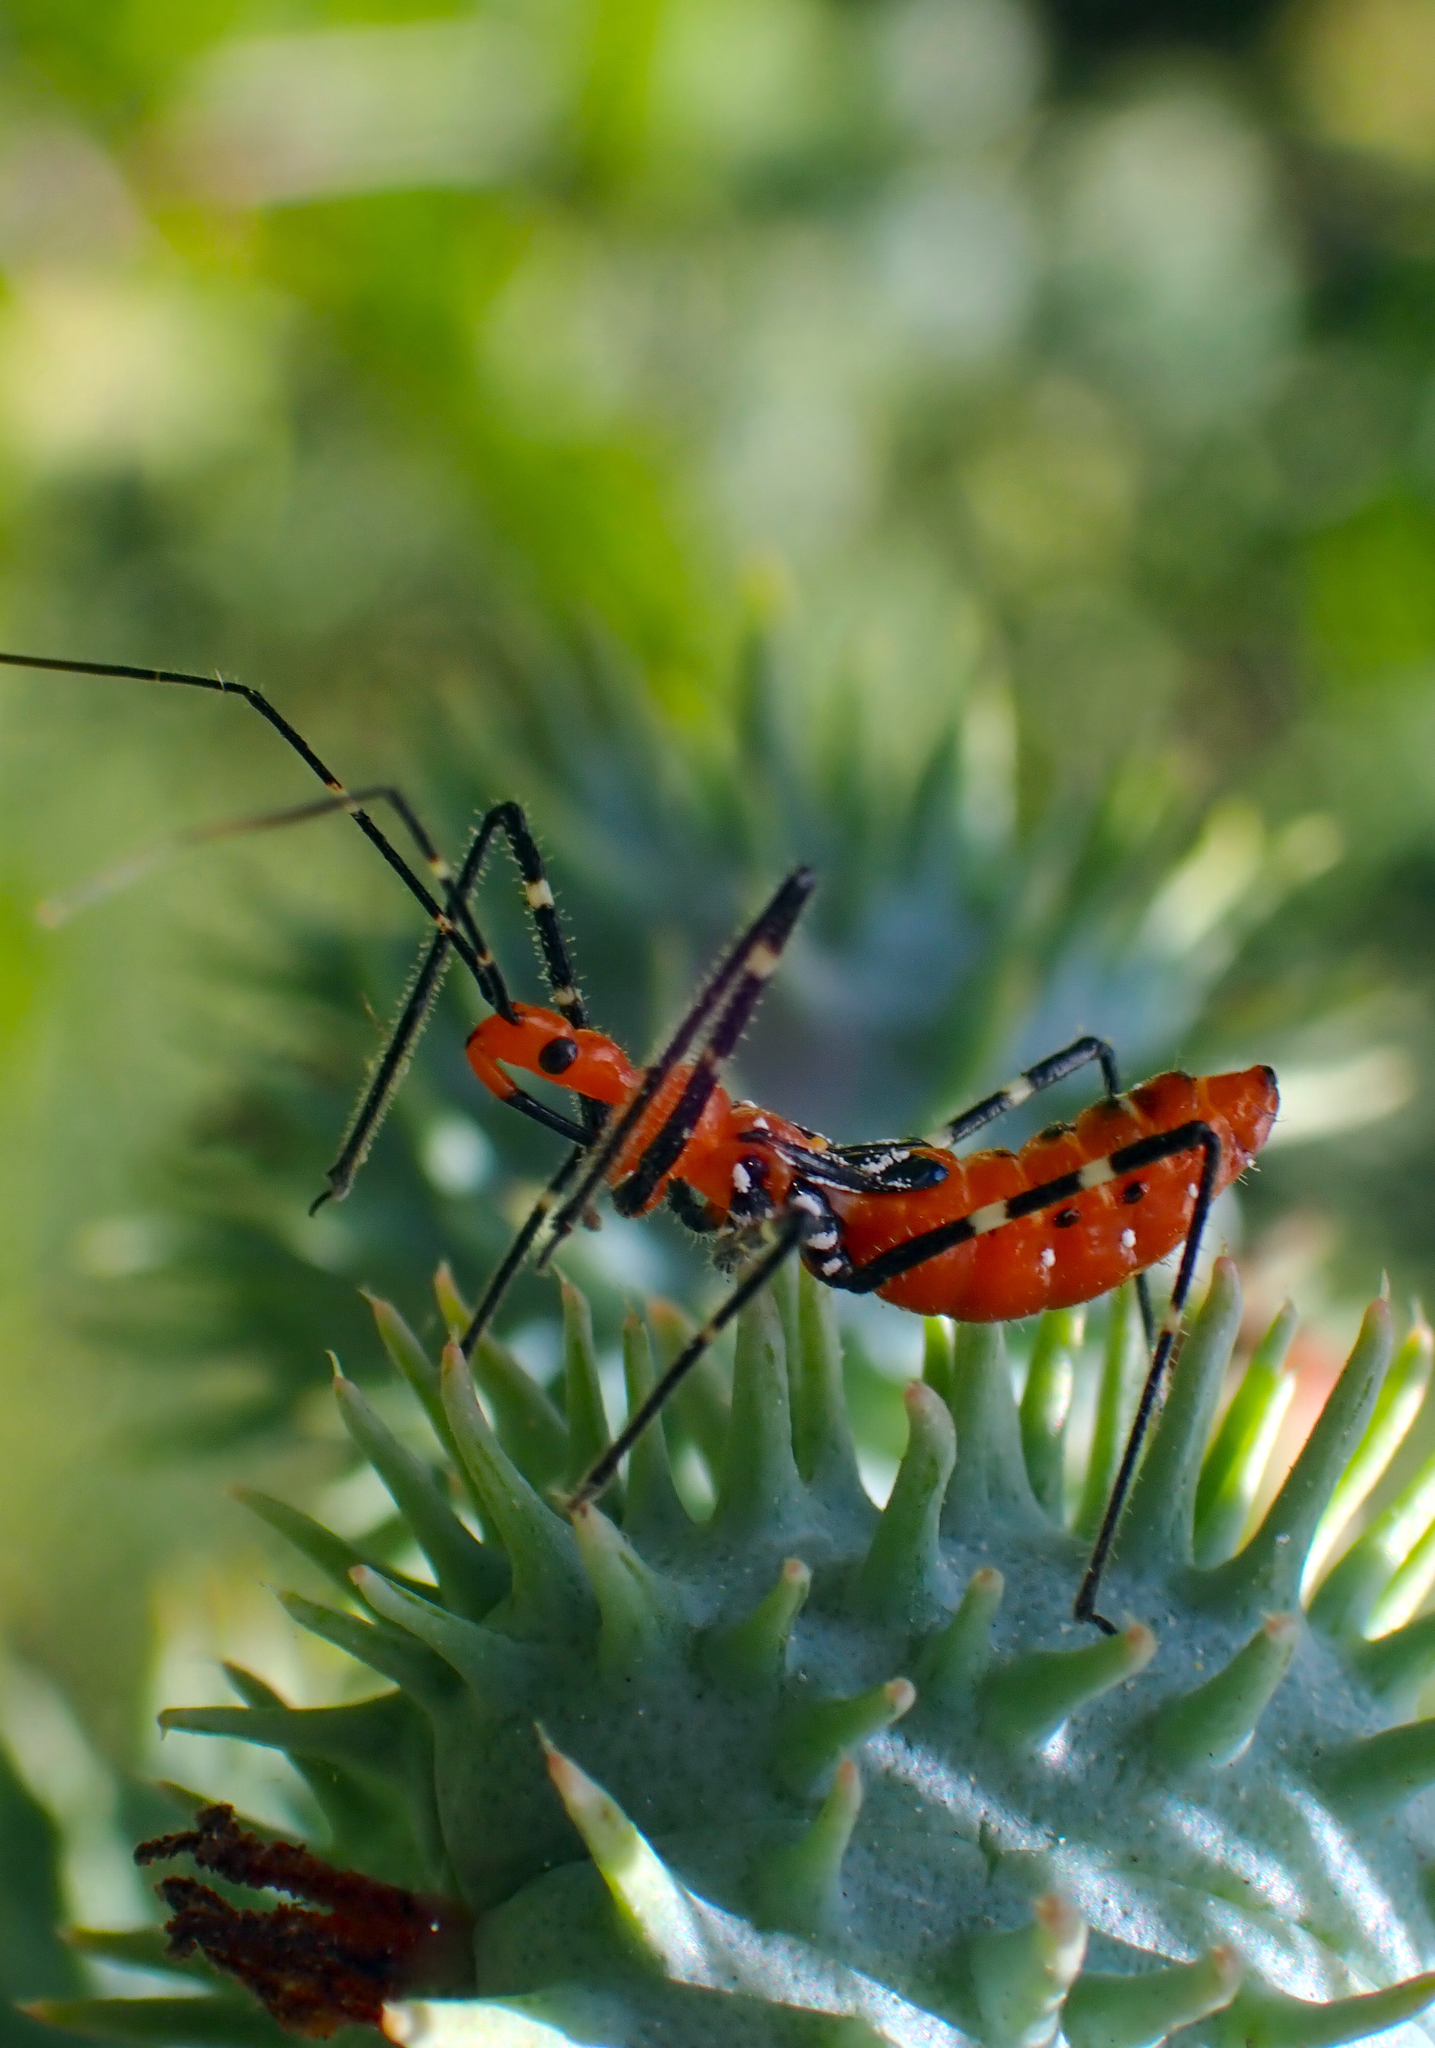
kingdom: Animalia
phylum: Arthropoda
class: Insecta
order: Hemiptera
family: Reduviidae
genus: Zelus
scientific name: Zelus longipes
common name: Milkweed assassin bug
